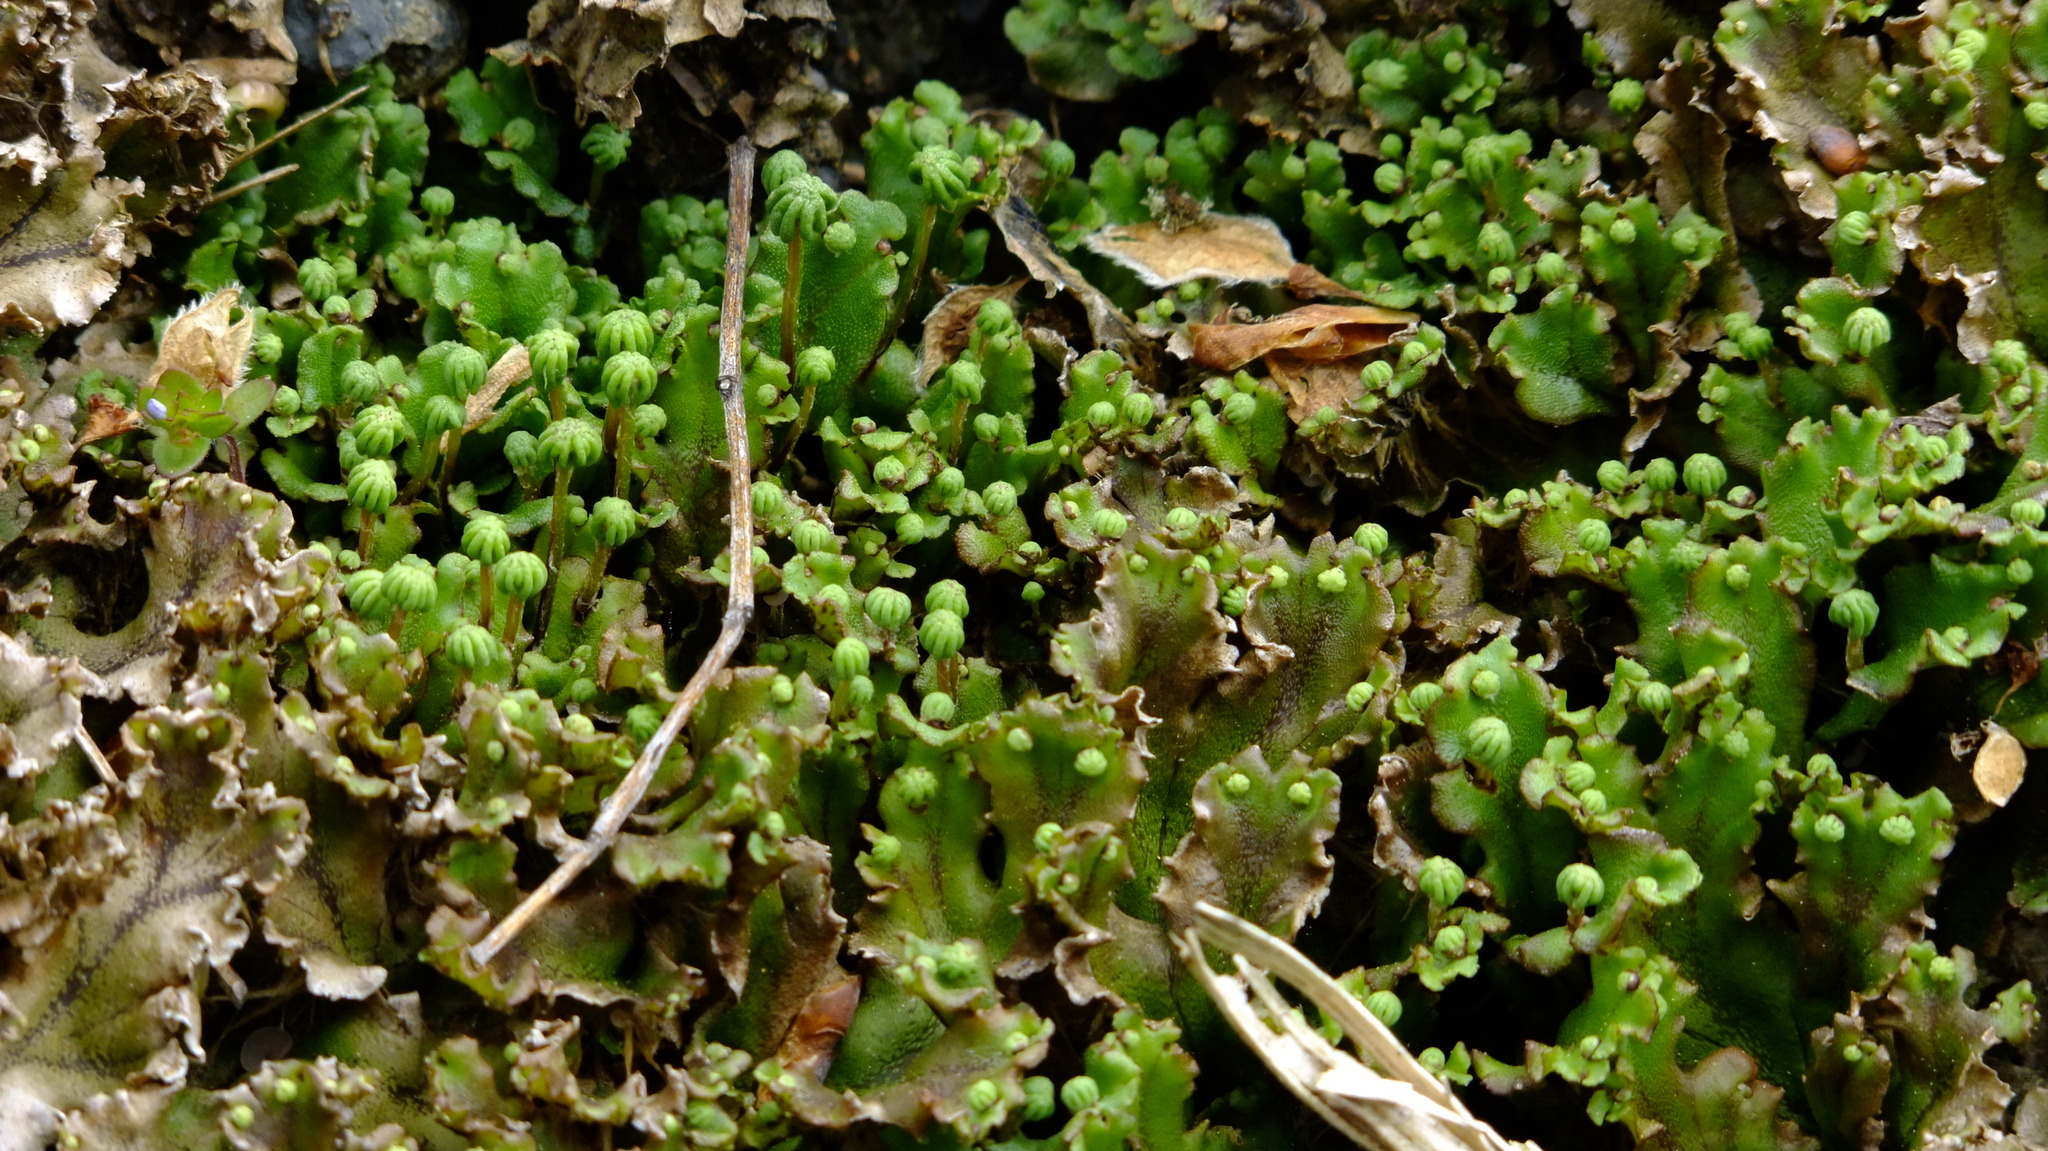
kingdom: Plantae
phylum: Marchantiophyta
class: Marchantiopsida
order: Marchantiales
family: Marchantiaceae
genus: Marchantia
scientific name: Marchantia polymorpha
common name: Common liverwort
